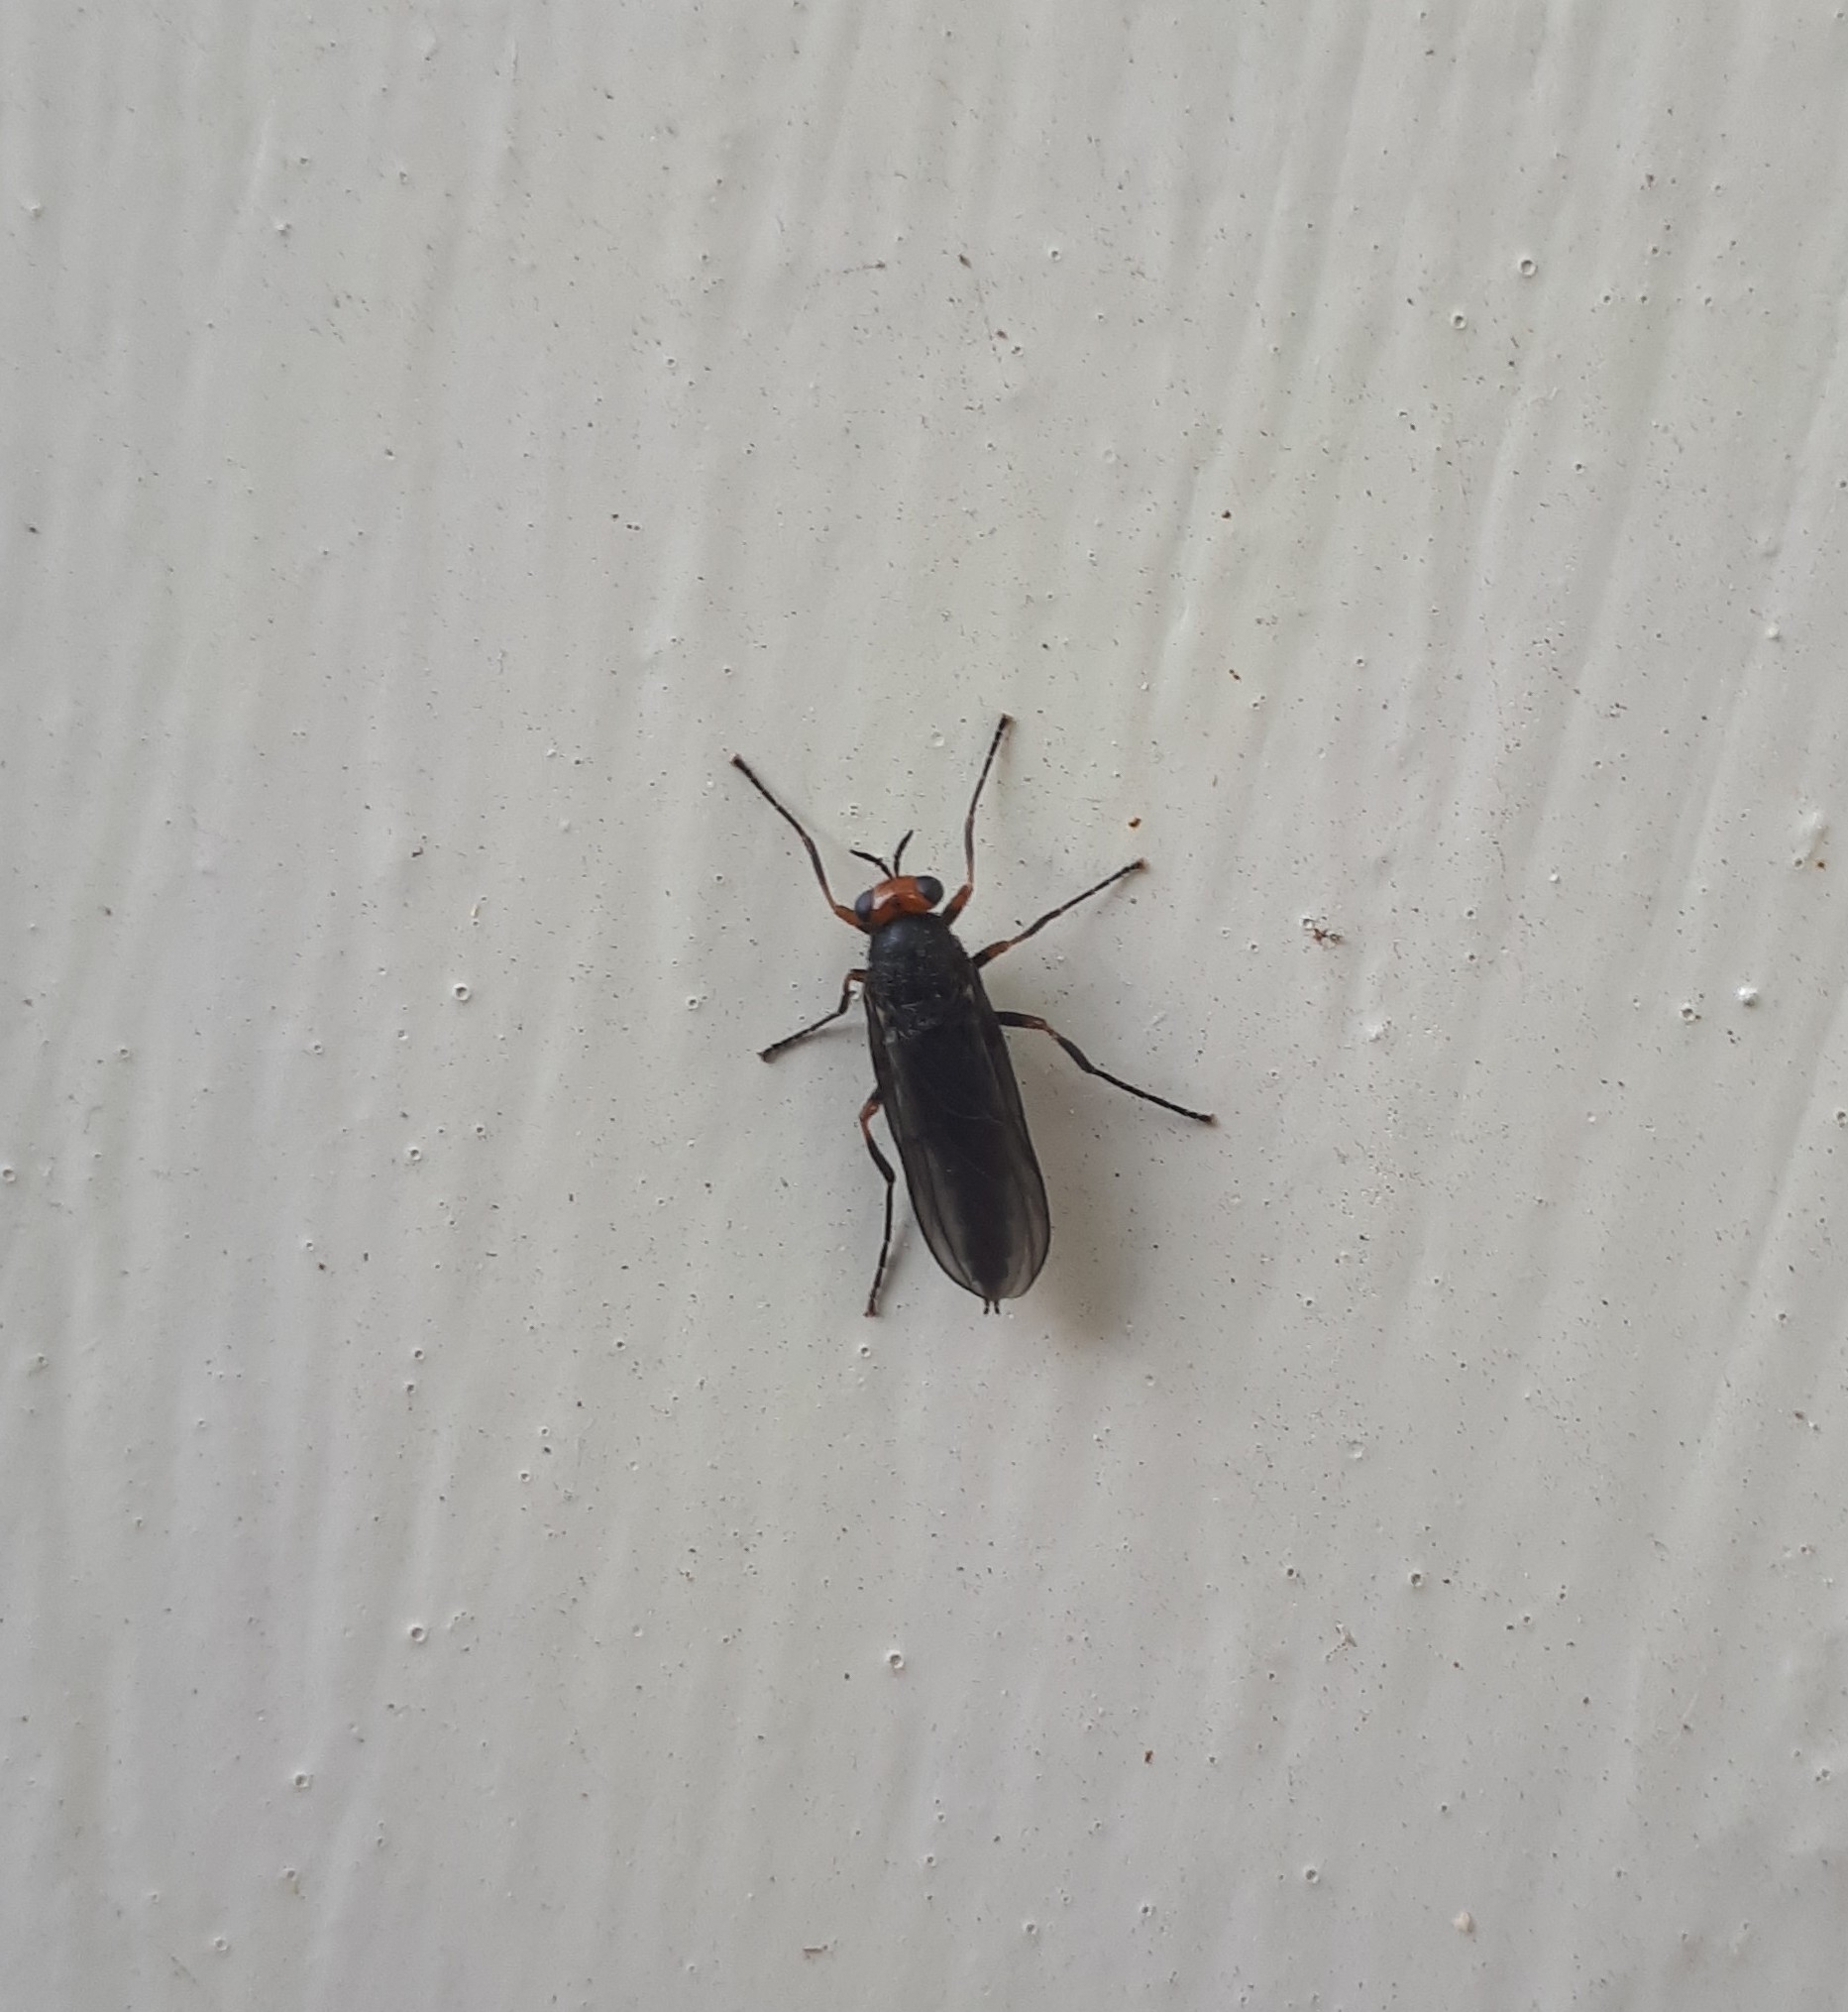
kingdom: Animalia
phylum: Arthropoda
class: Insecta
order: Diptera
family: Stratiomyidae
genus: Inopus
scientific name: Inopus rubriceps
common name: Soldier fly
